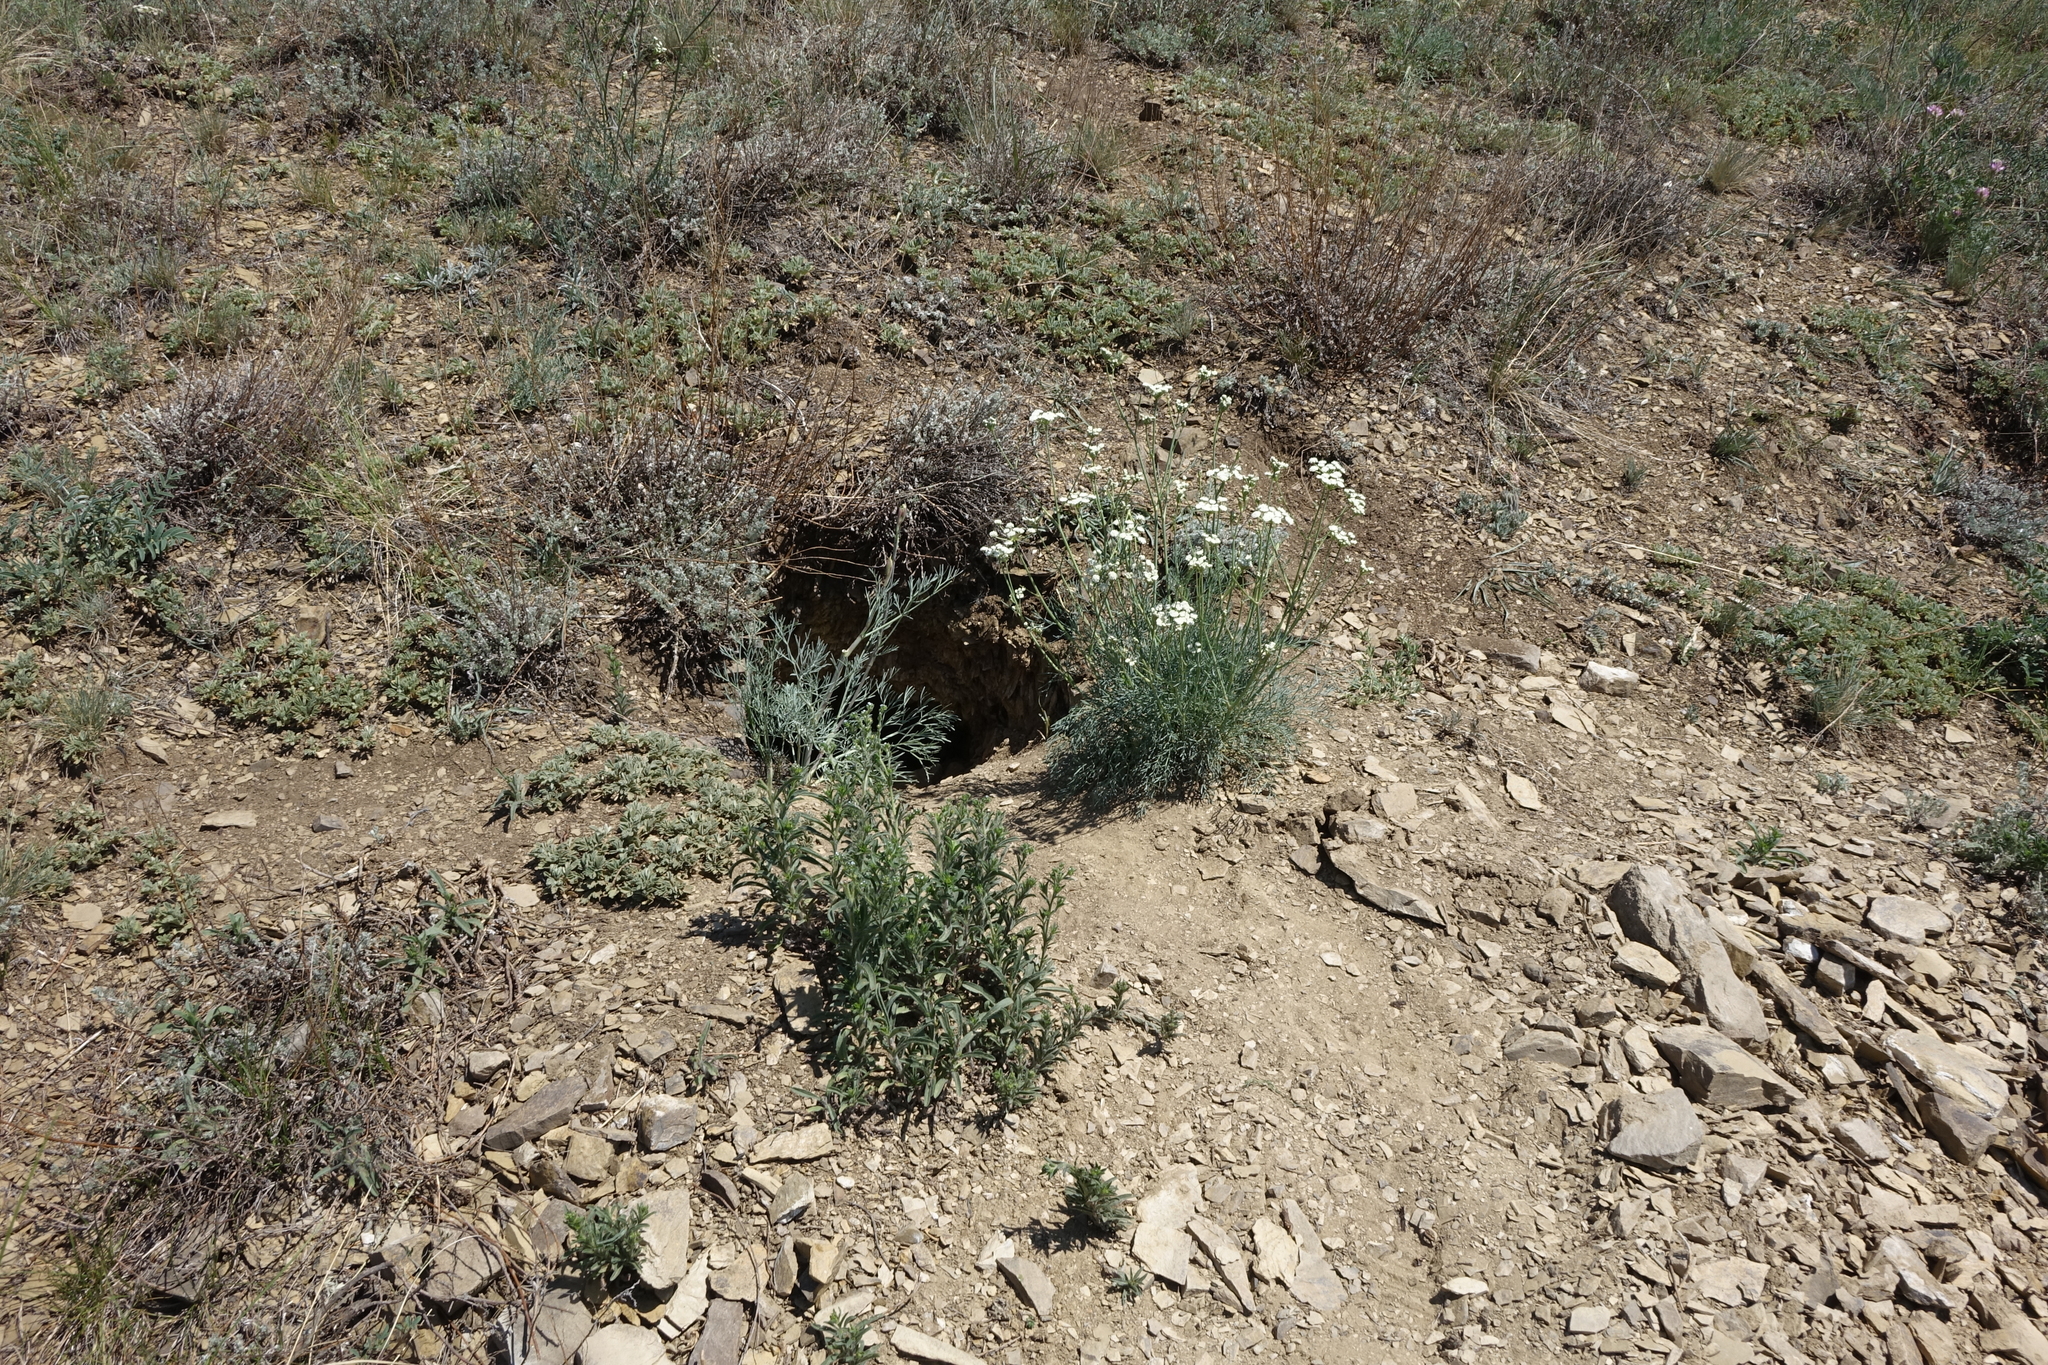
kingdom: Animalia
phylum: Chordata
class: Mammalia
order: Rodentia
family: Sciuridae
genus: Marmota
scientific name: Marmota kastschenkoi
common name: Forest steppe marmot
